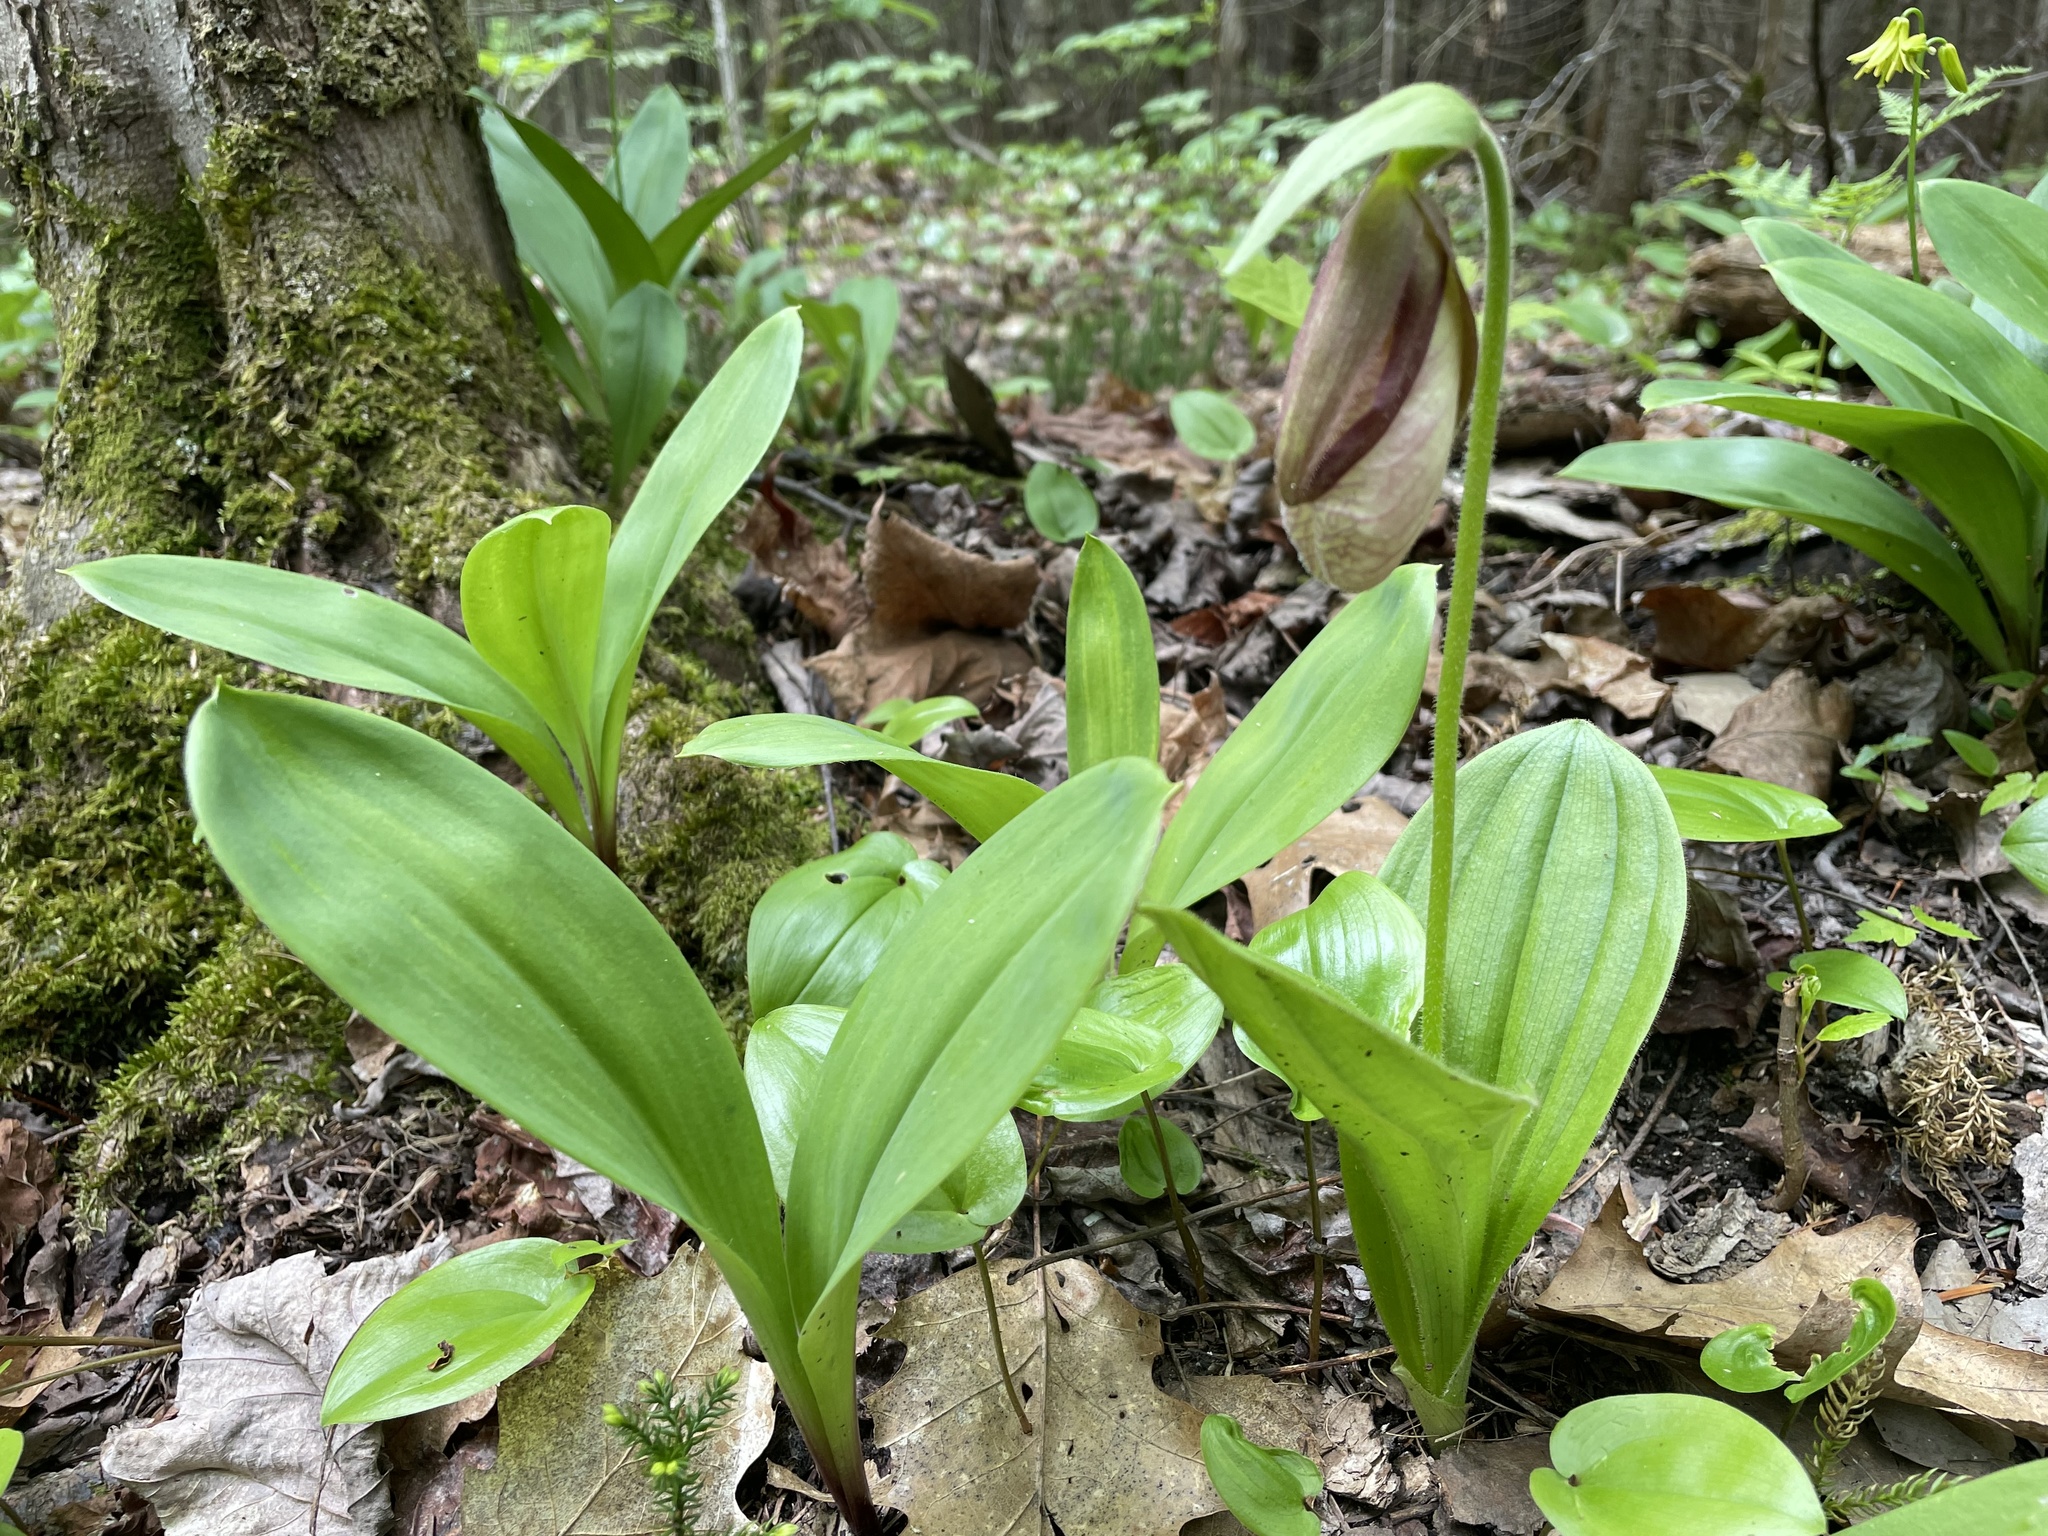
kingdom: Plantae
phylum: Tracheophyta
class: Liliopsida
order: Asparagales
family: Orchidaceae
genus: Cypripedium
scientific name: Cypripedium acaule
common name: Pink lady's-slipper
